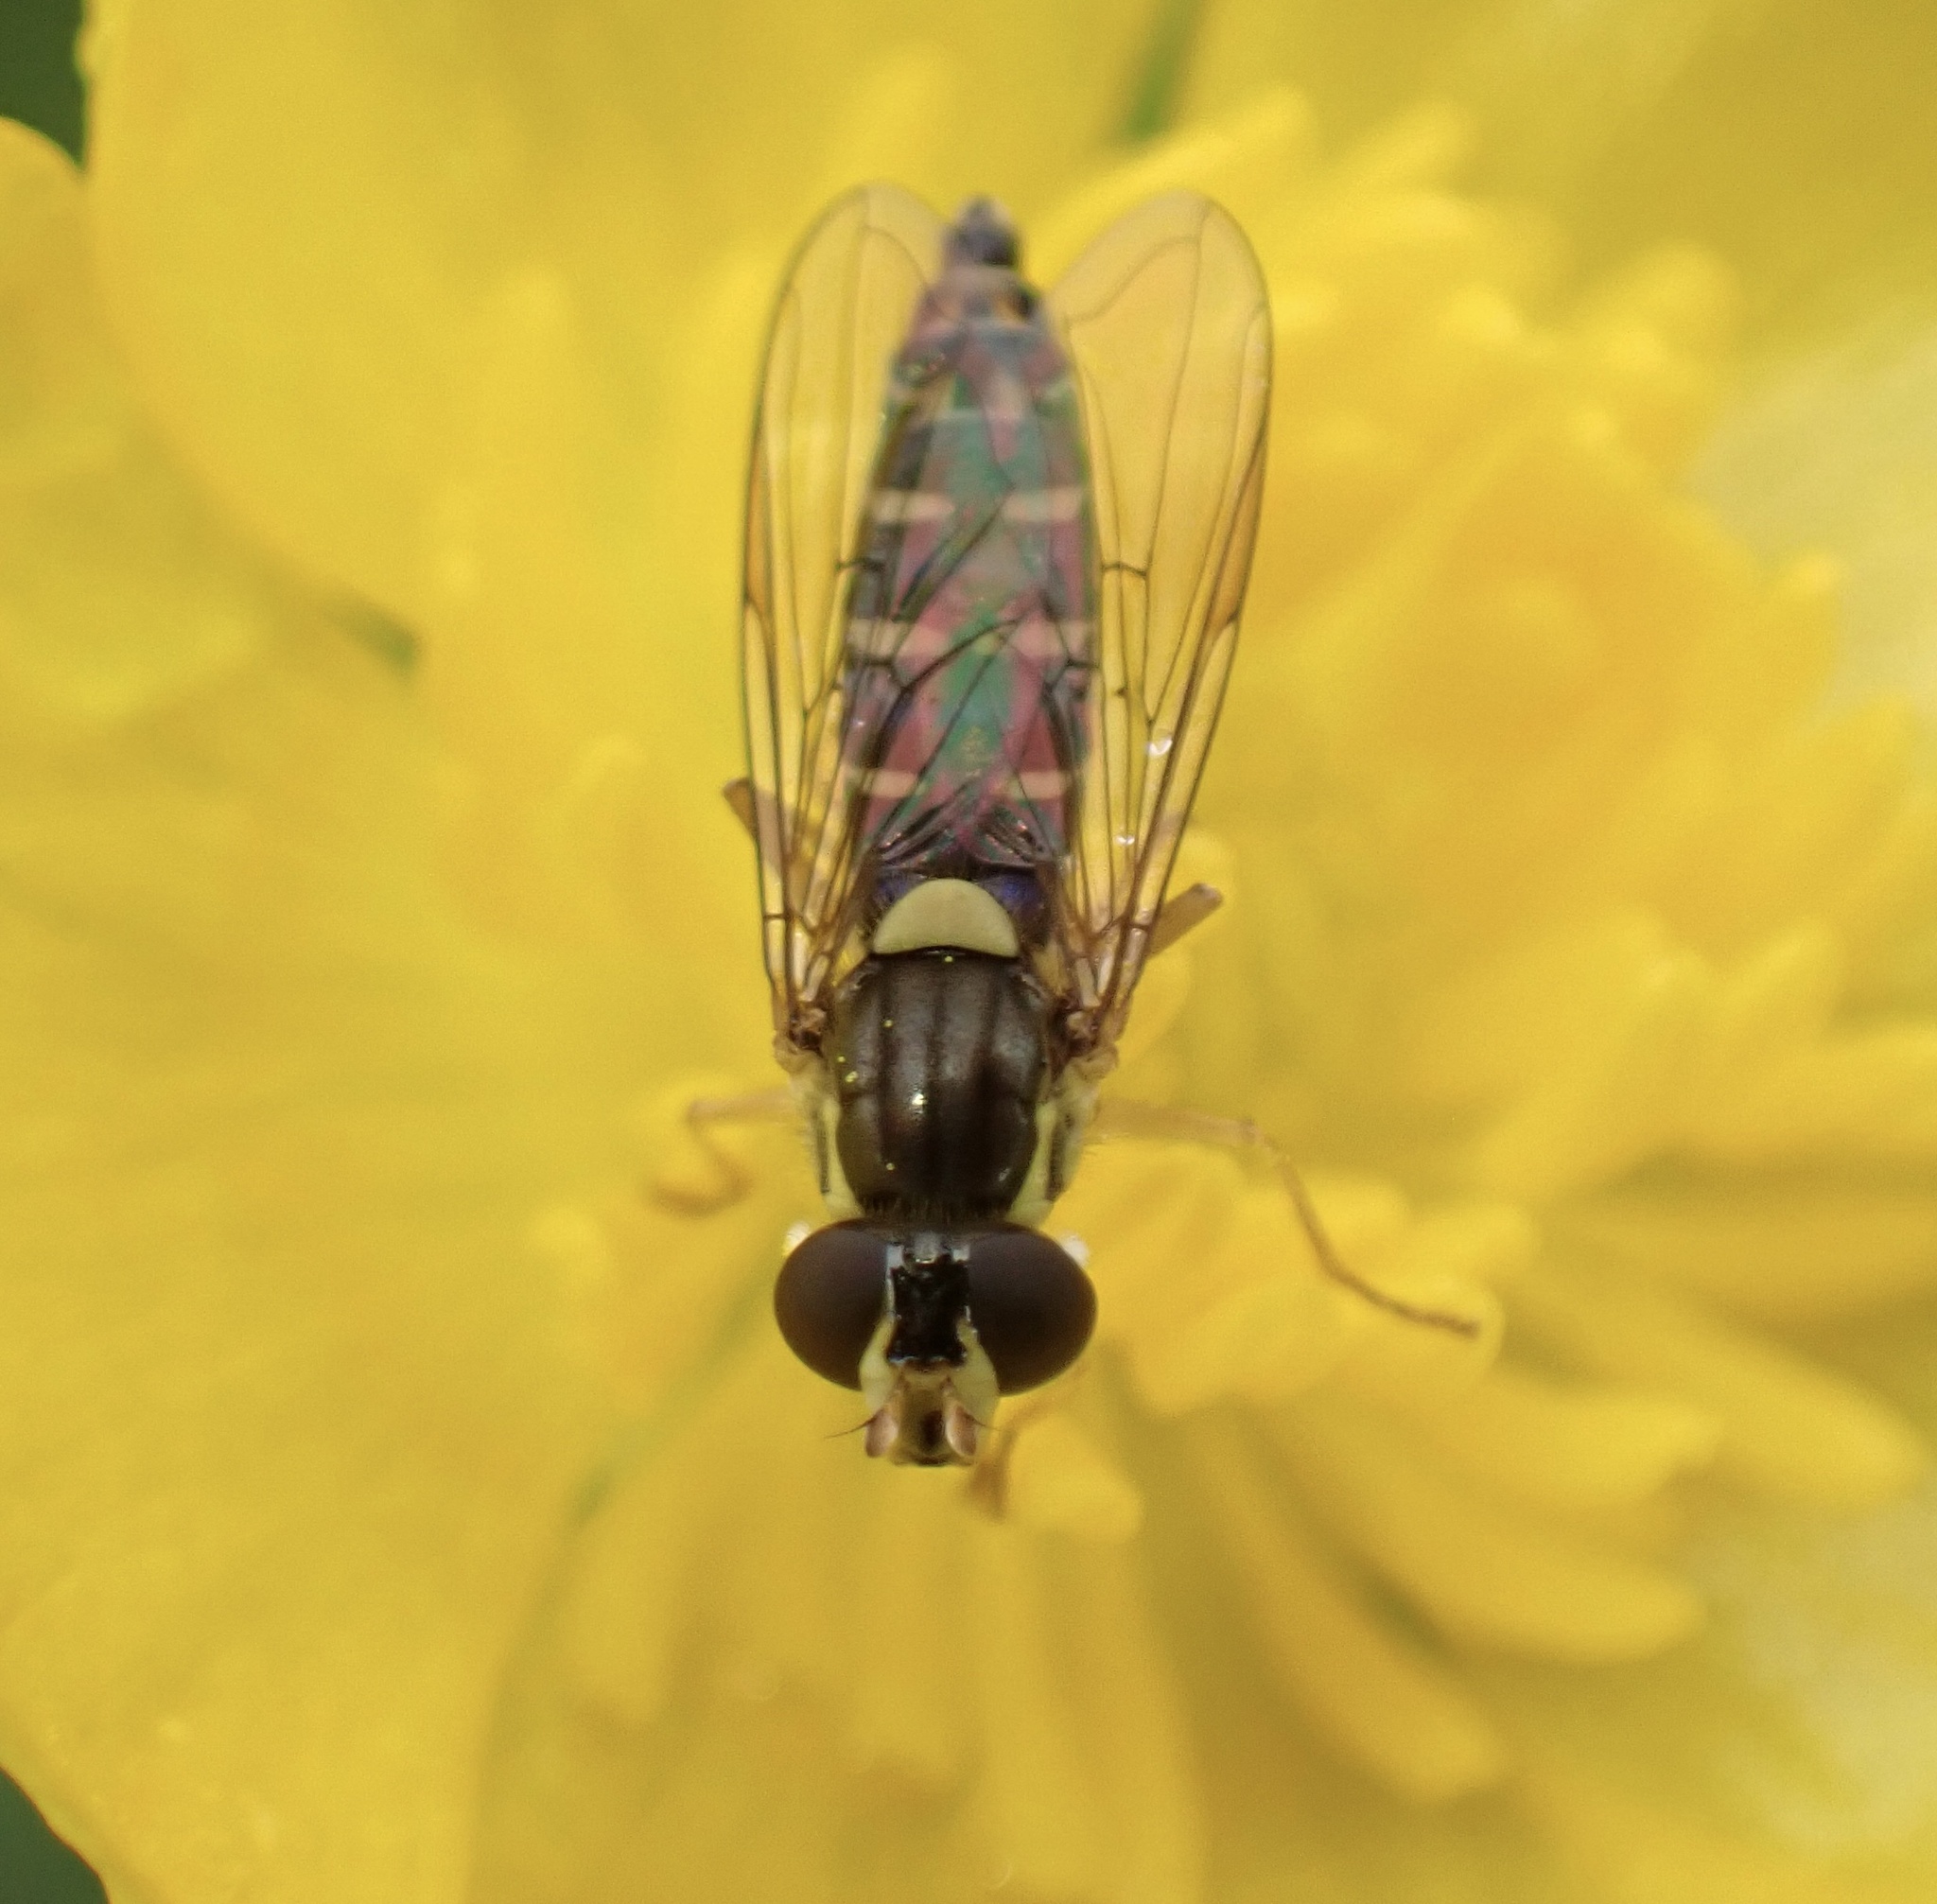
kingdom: Animalia
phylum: Arthropoda
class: Insecta
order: Diptera
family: Syrphidae
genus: Sphaerophoria
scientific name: Sphaerophoria
